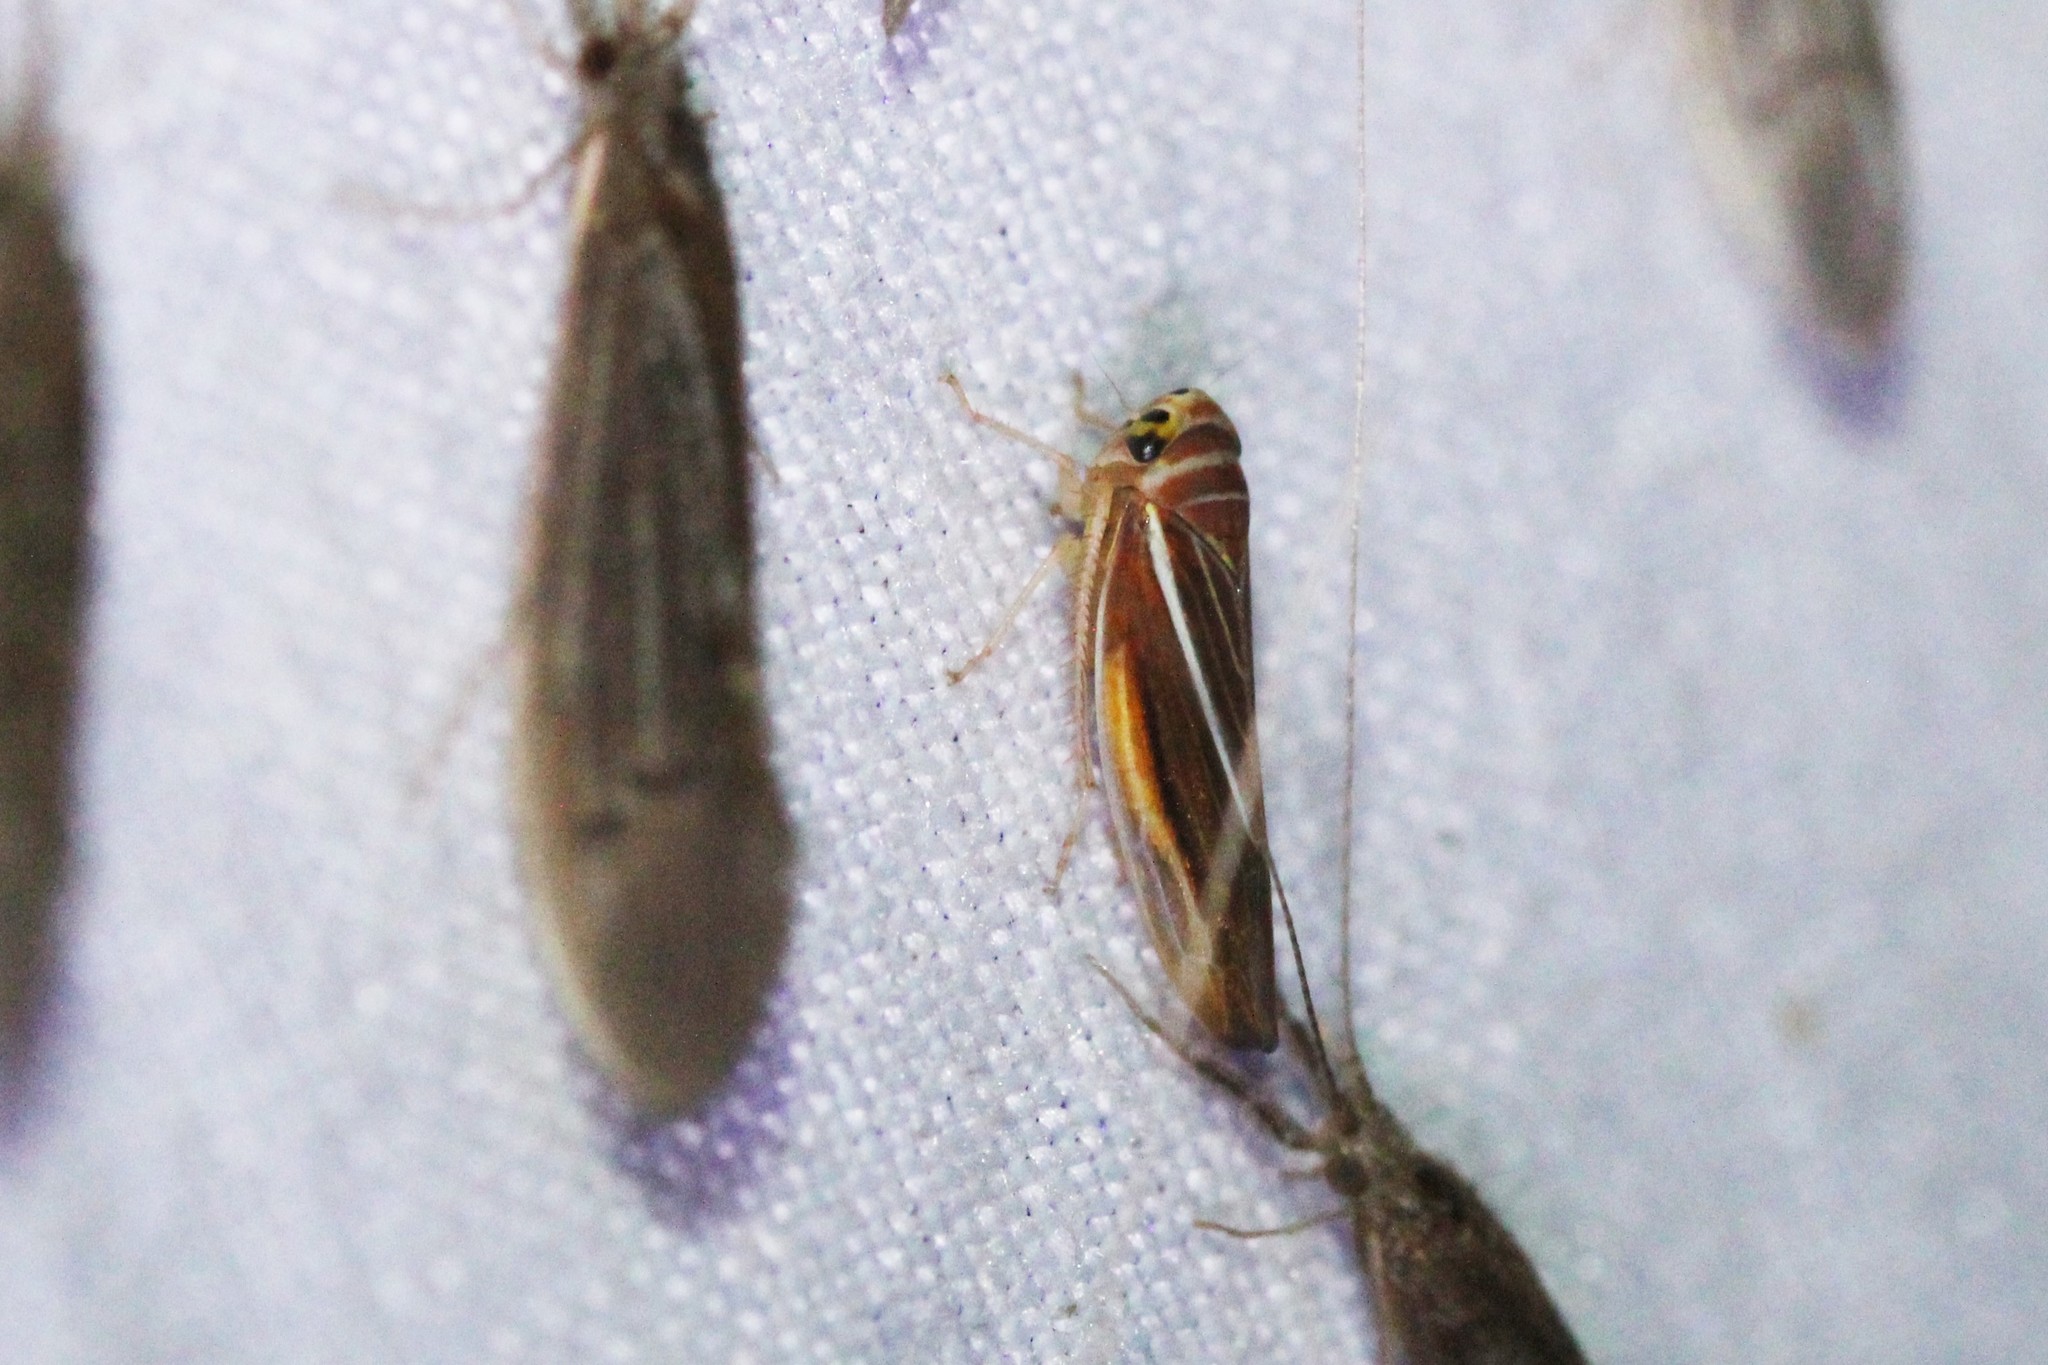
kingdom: Animalia
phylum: Arthropoda
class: Insecta
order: Hemiptera
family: Cicadellidae
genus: Idiodonus
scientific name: Idiodonus kennicotti
